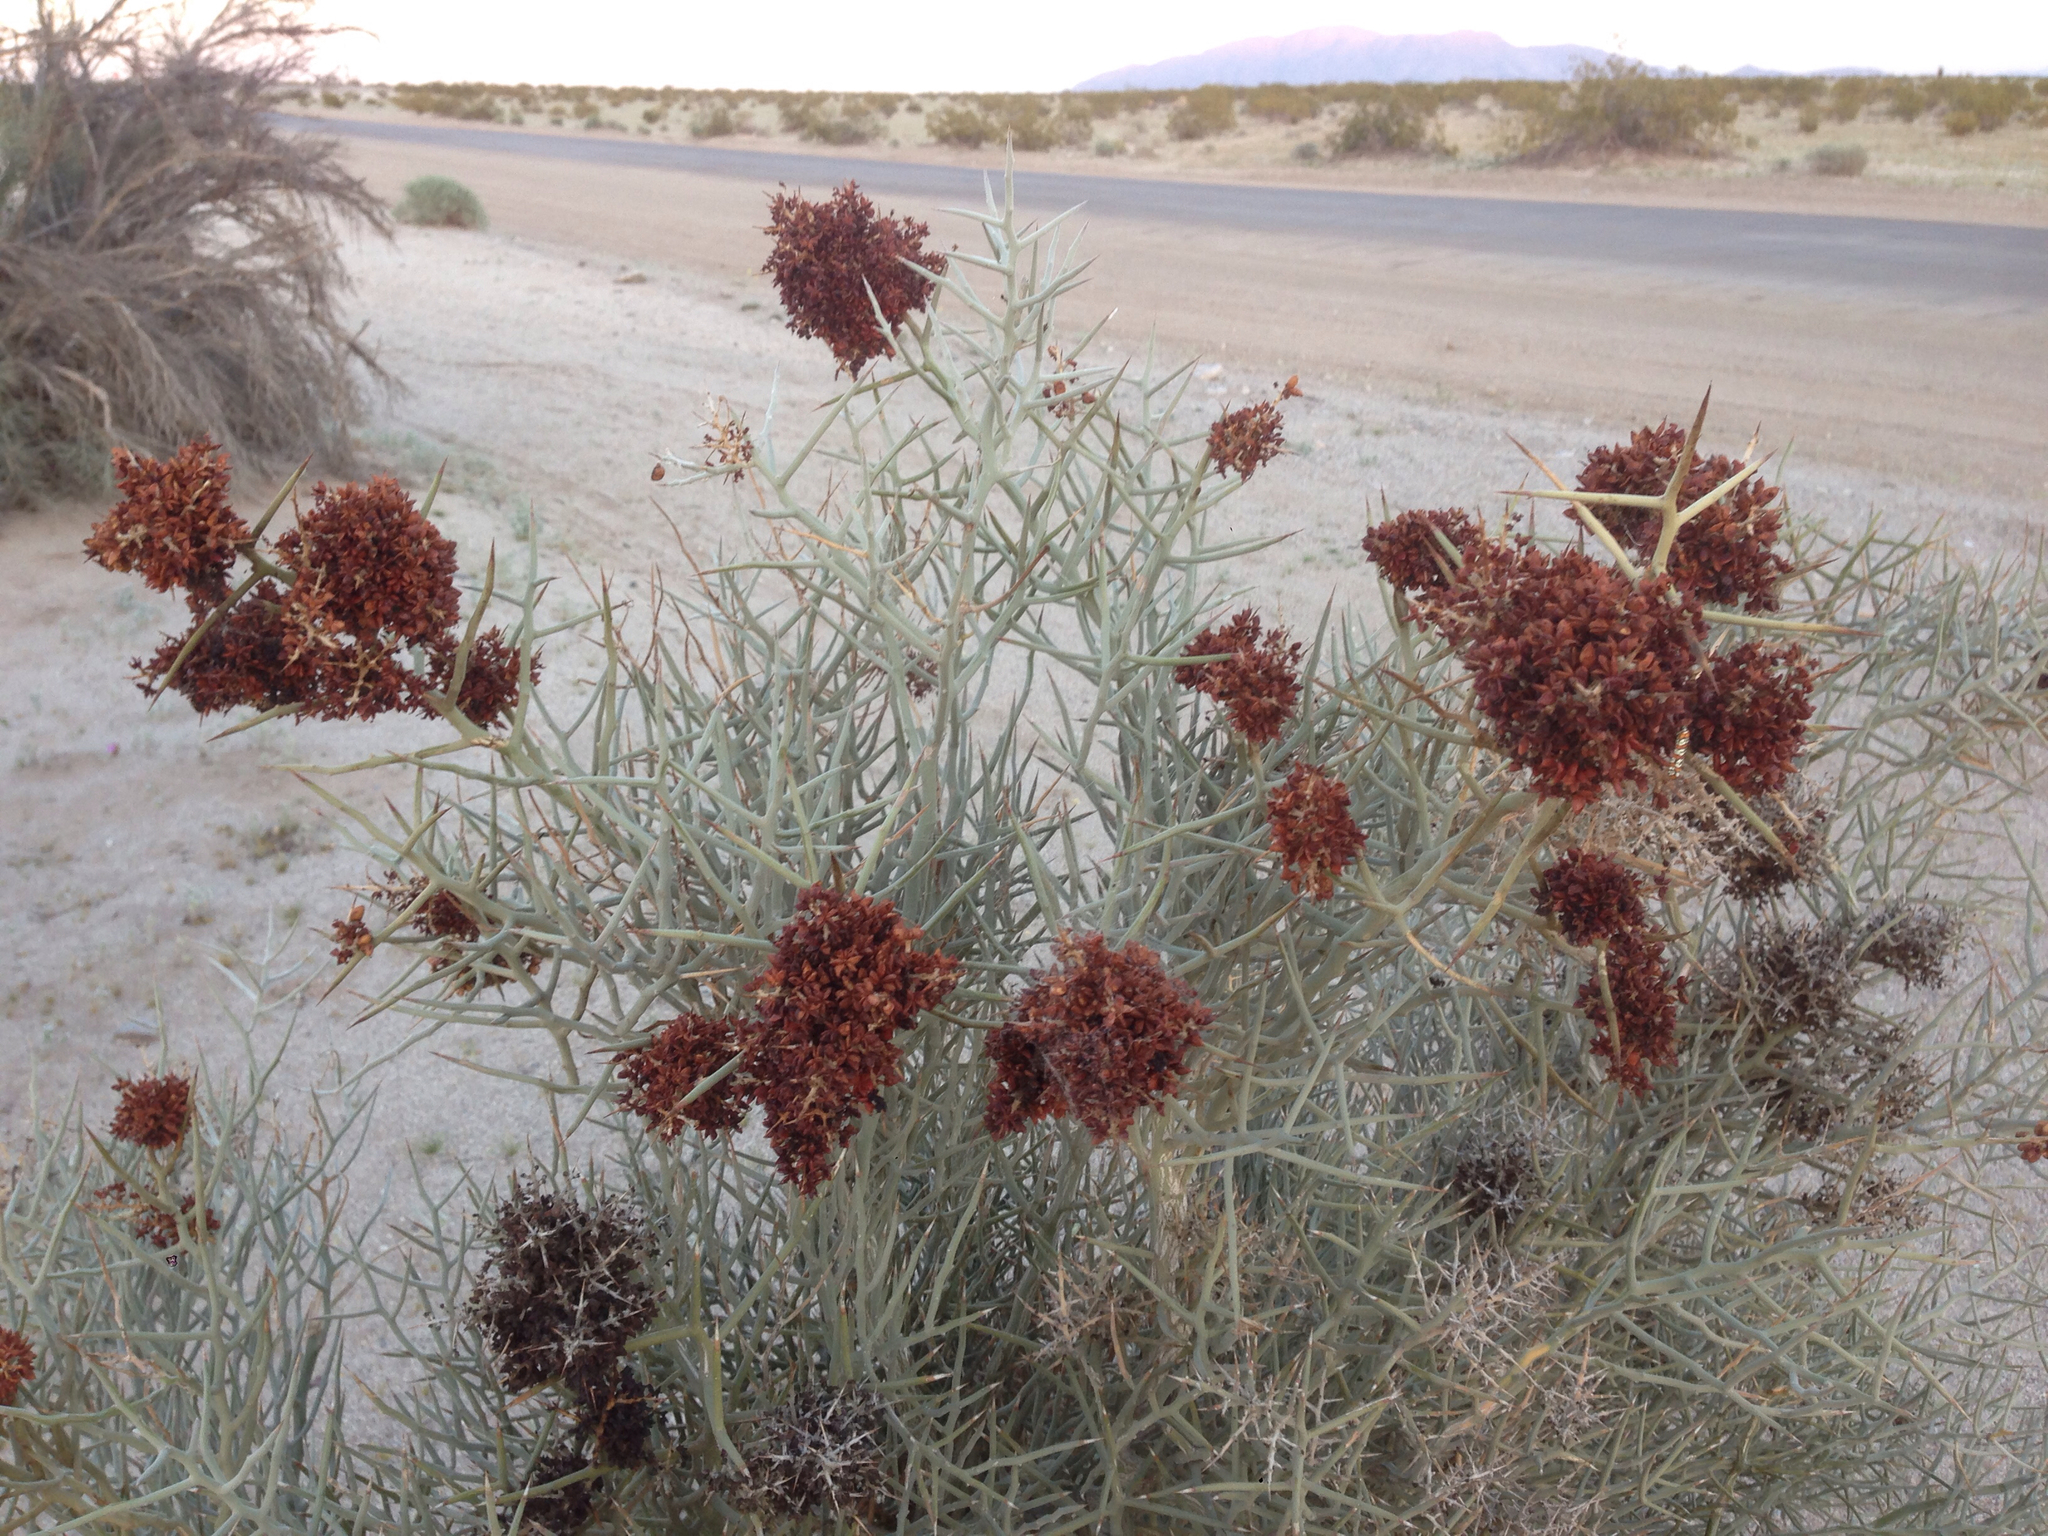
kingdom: Plantae
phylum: Tracheophyta
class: Magnoliopsida
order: Sapindales
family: Simaroubaceae
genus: Holacantha
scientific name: Holacantha emoryi
